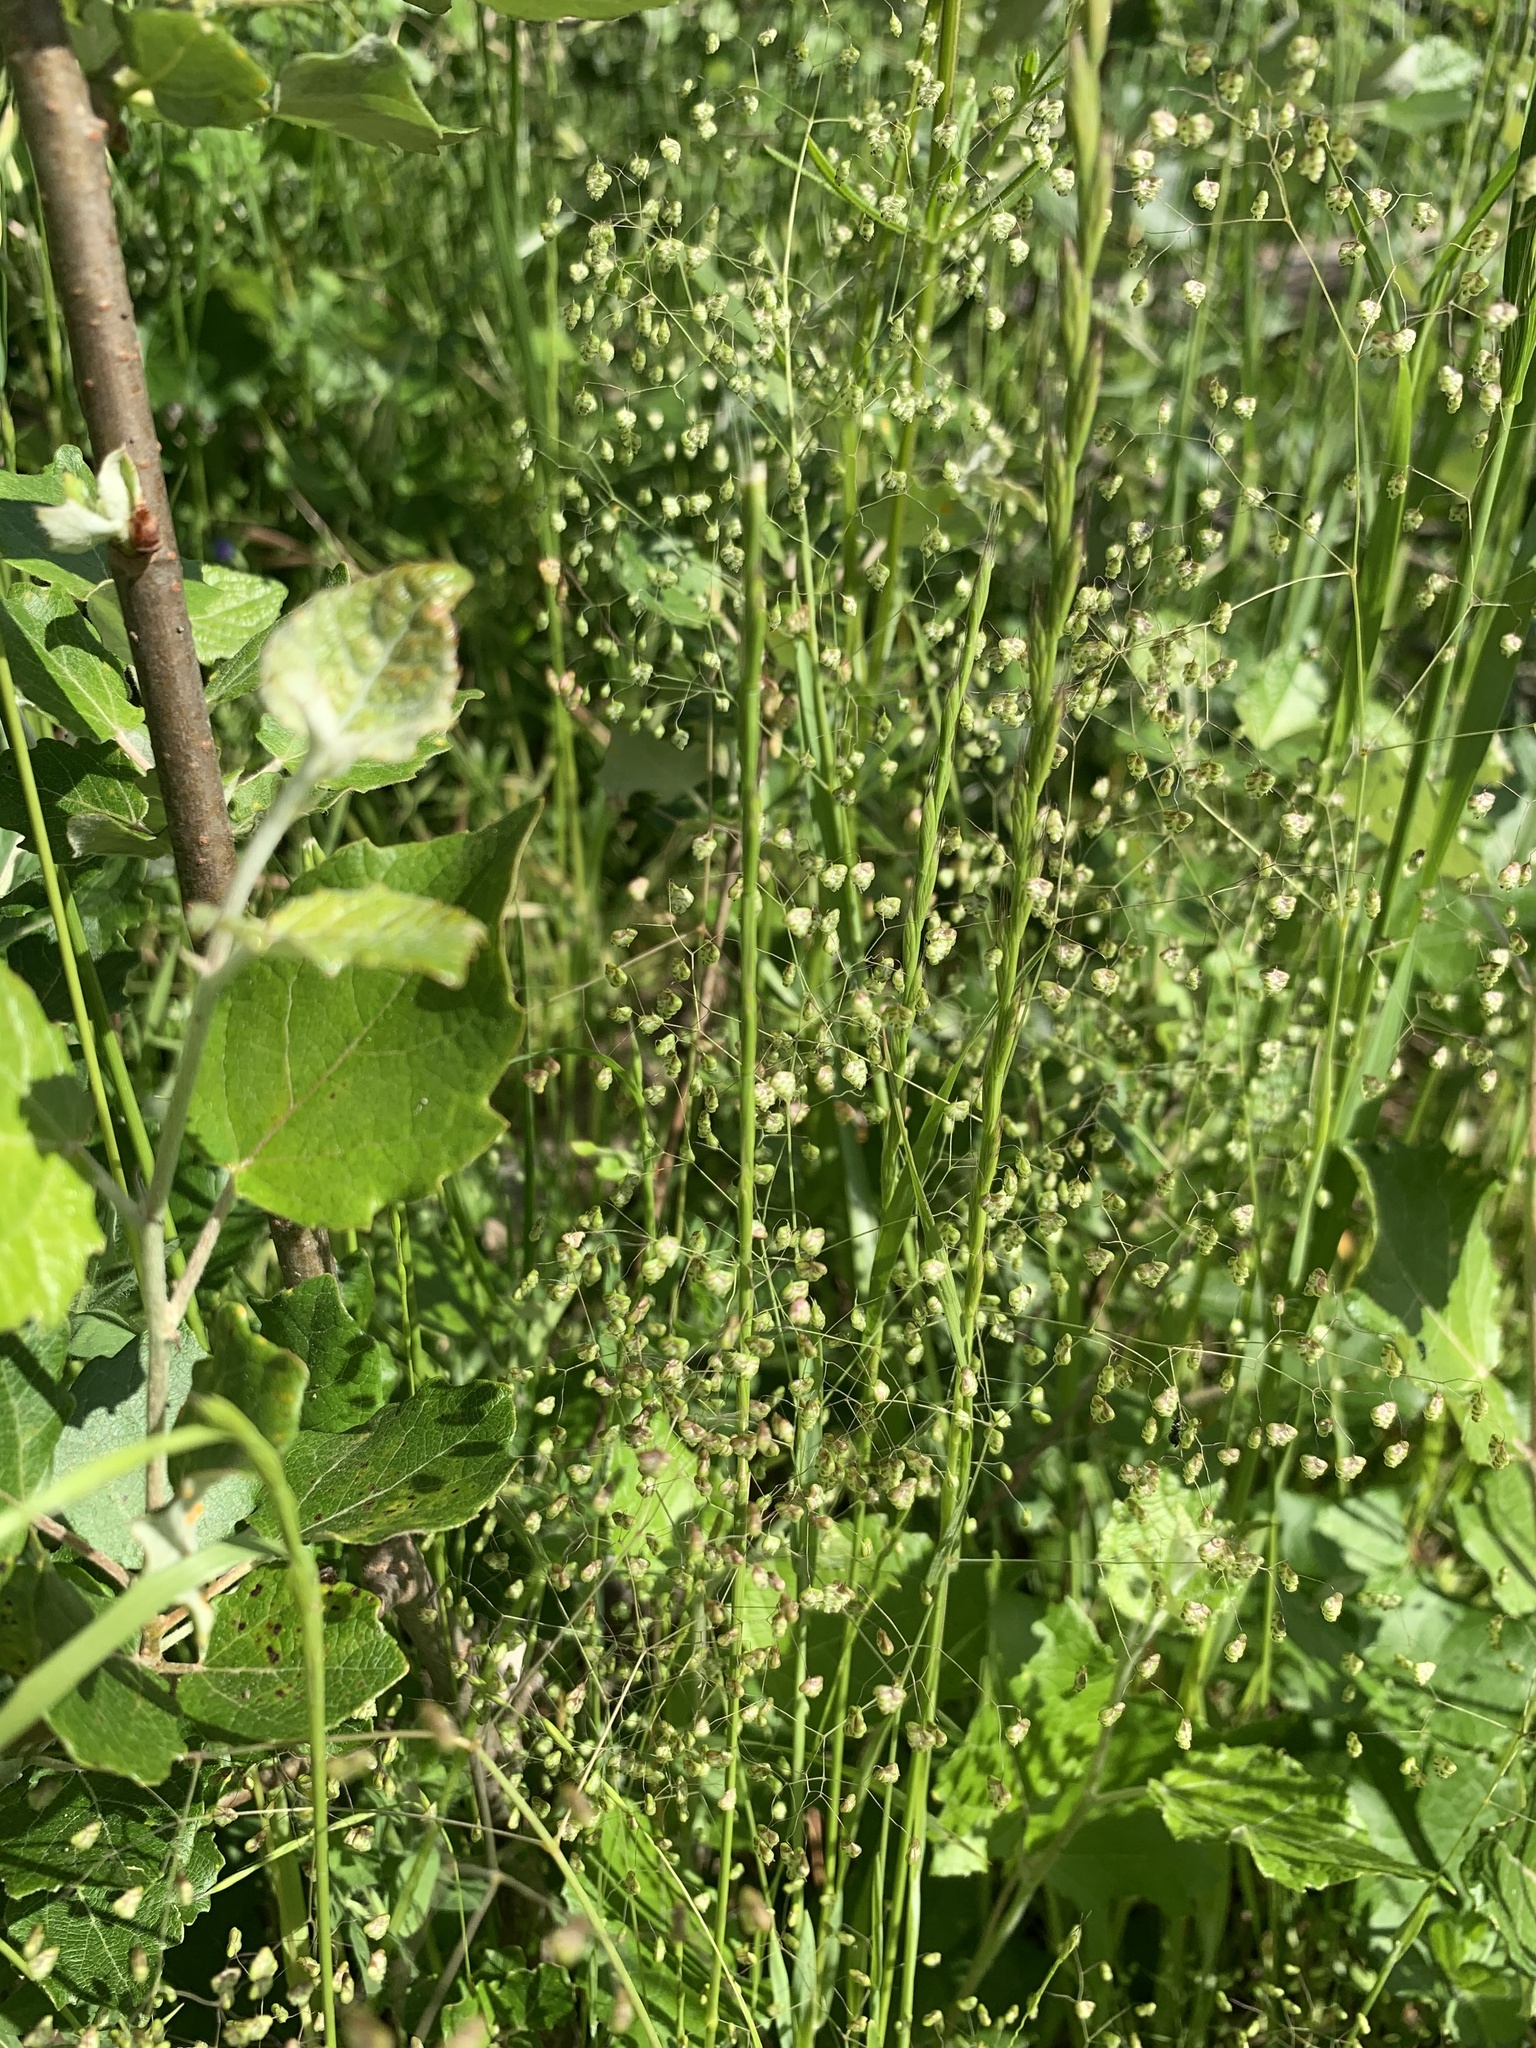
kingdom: Plantae
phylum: Tracheophyta
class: Liliopsida
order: Poales
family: Poaceae
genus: Briza
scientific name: Briza minor
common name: Lesser quaking-grass
